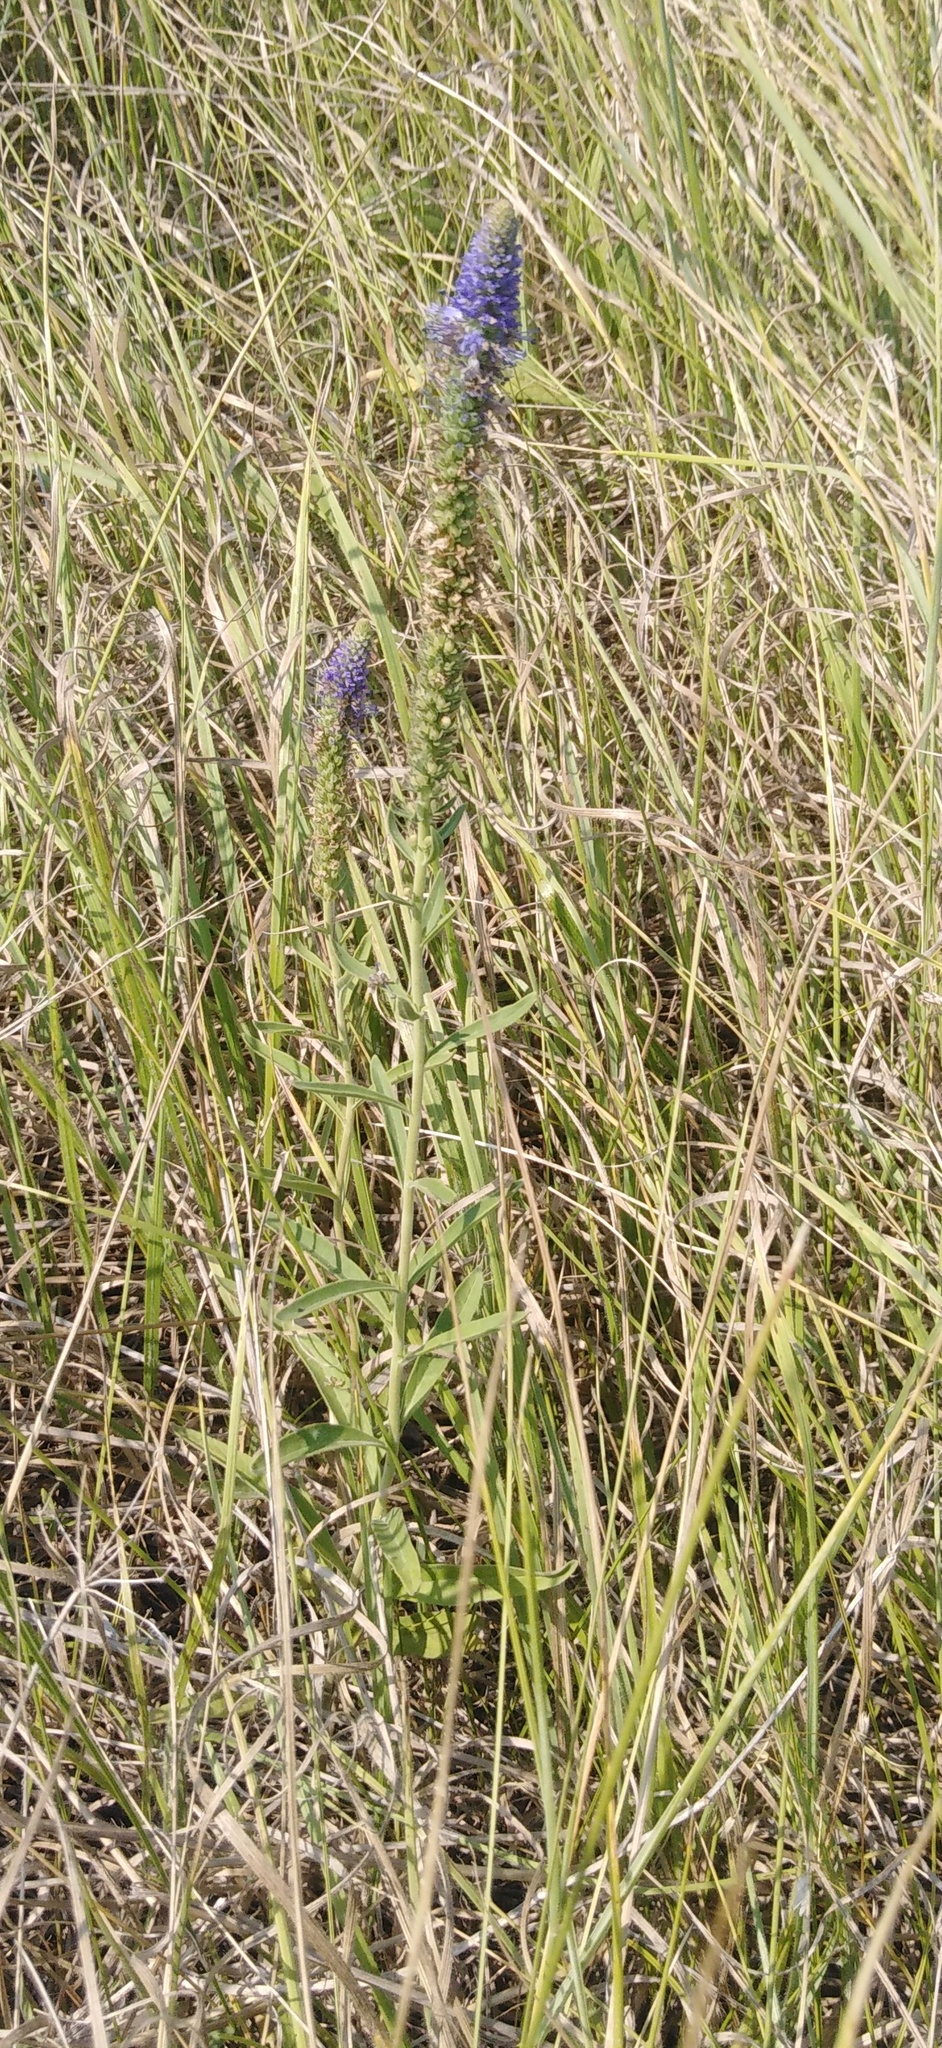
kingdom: Plantae
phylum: Tracheophyta
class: Magnoliopsida
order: Lamiales
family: Plantaginaceae
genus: Veronica
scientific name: Veronica spicata
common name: Spiked speedwell
